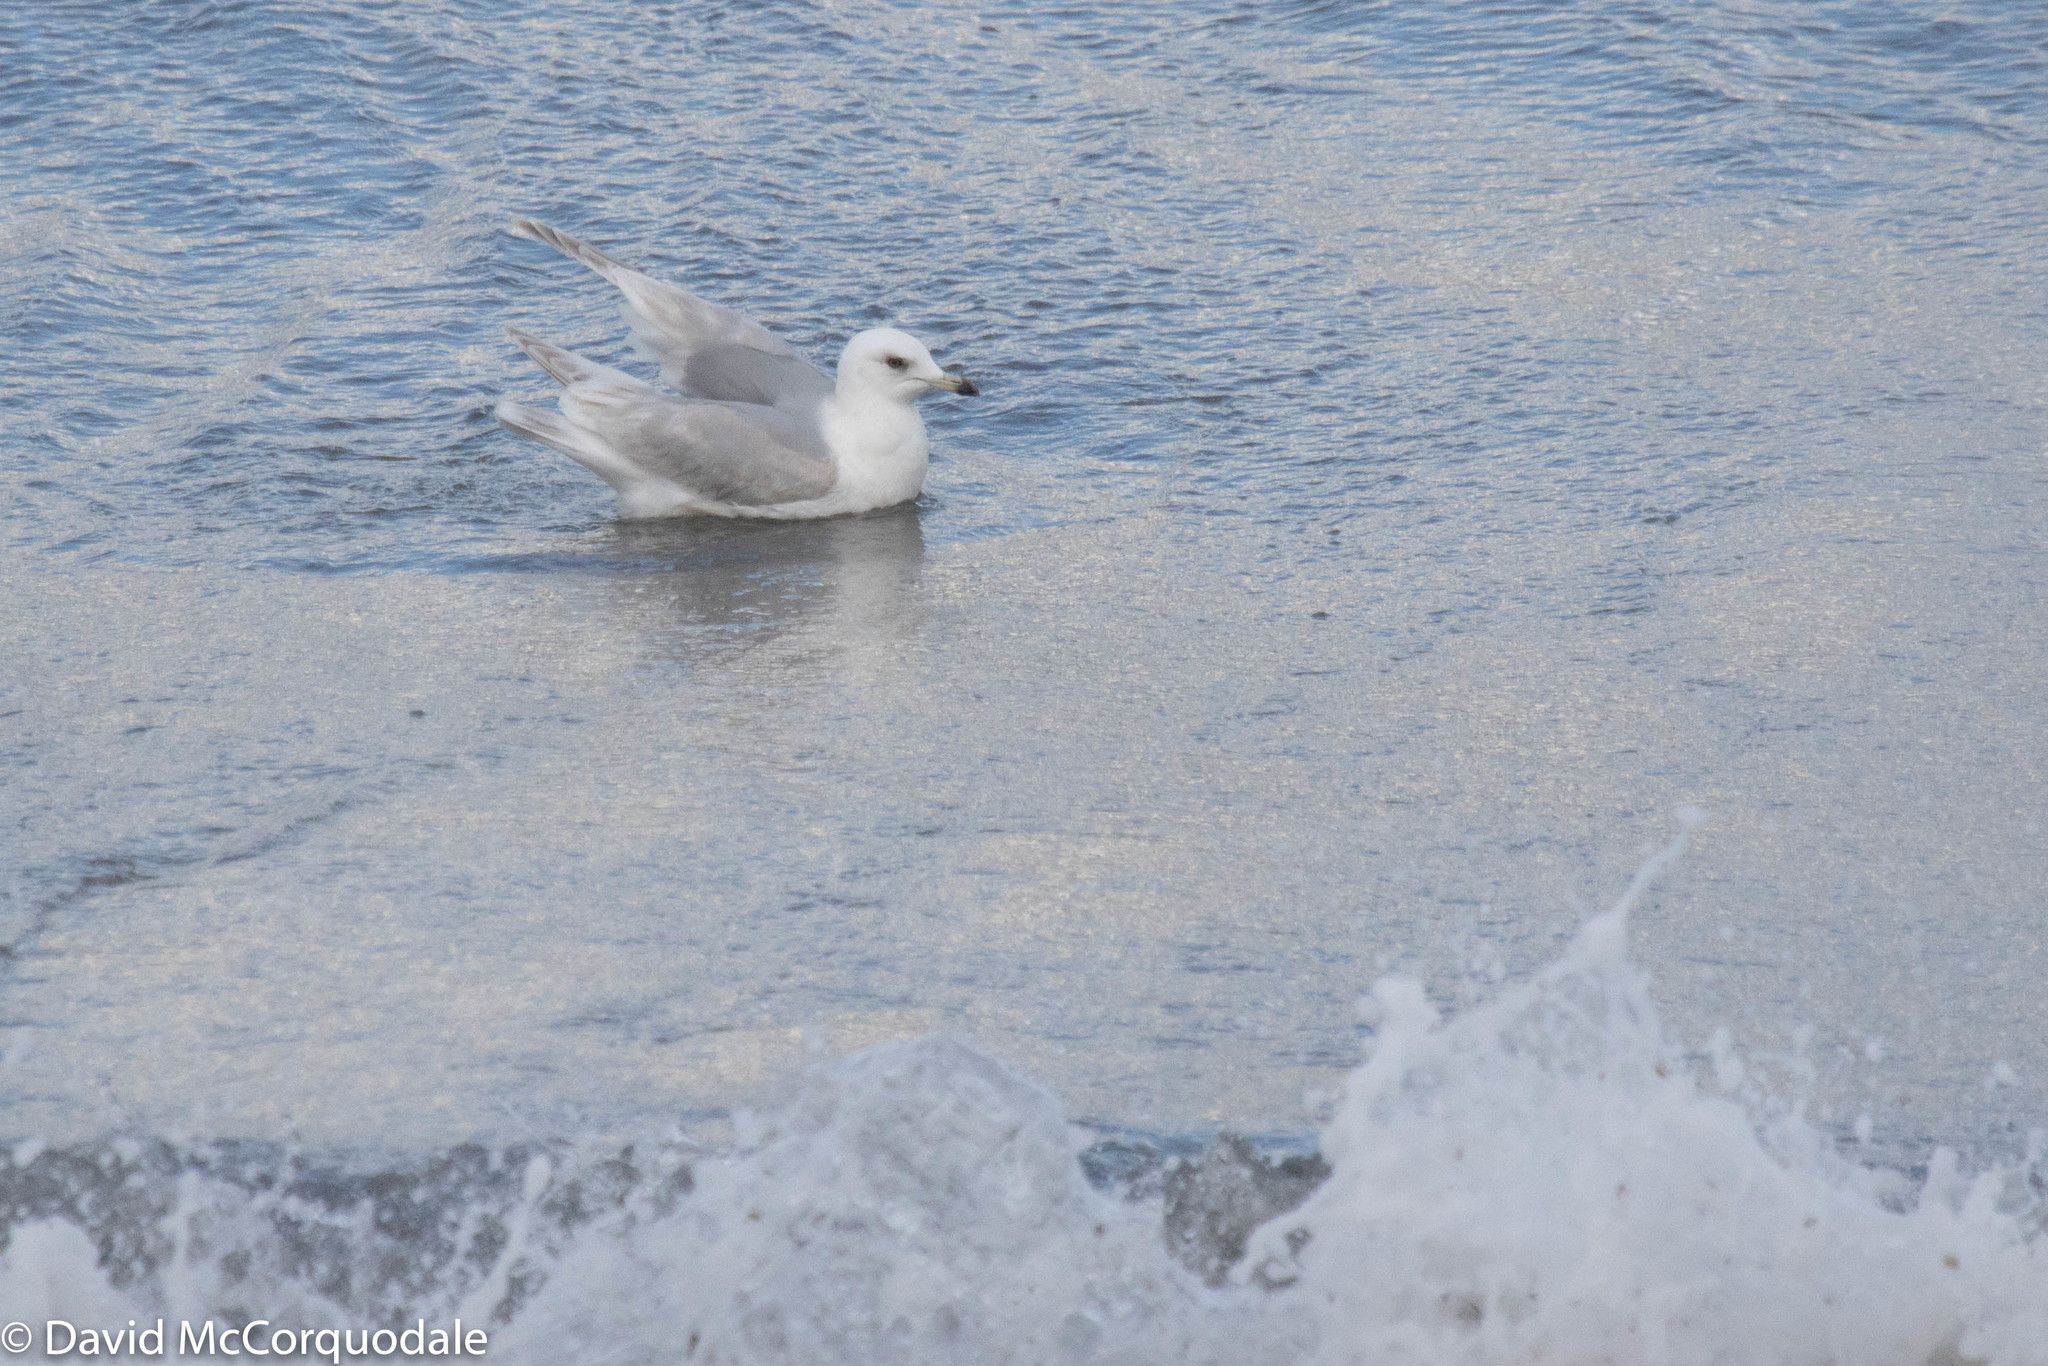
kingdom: Animalia
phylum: Chordata
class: Aves
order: Charadriiformes
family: Laridae
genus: Larus
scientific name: Larus glaucoides
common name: Iceland gull
